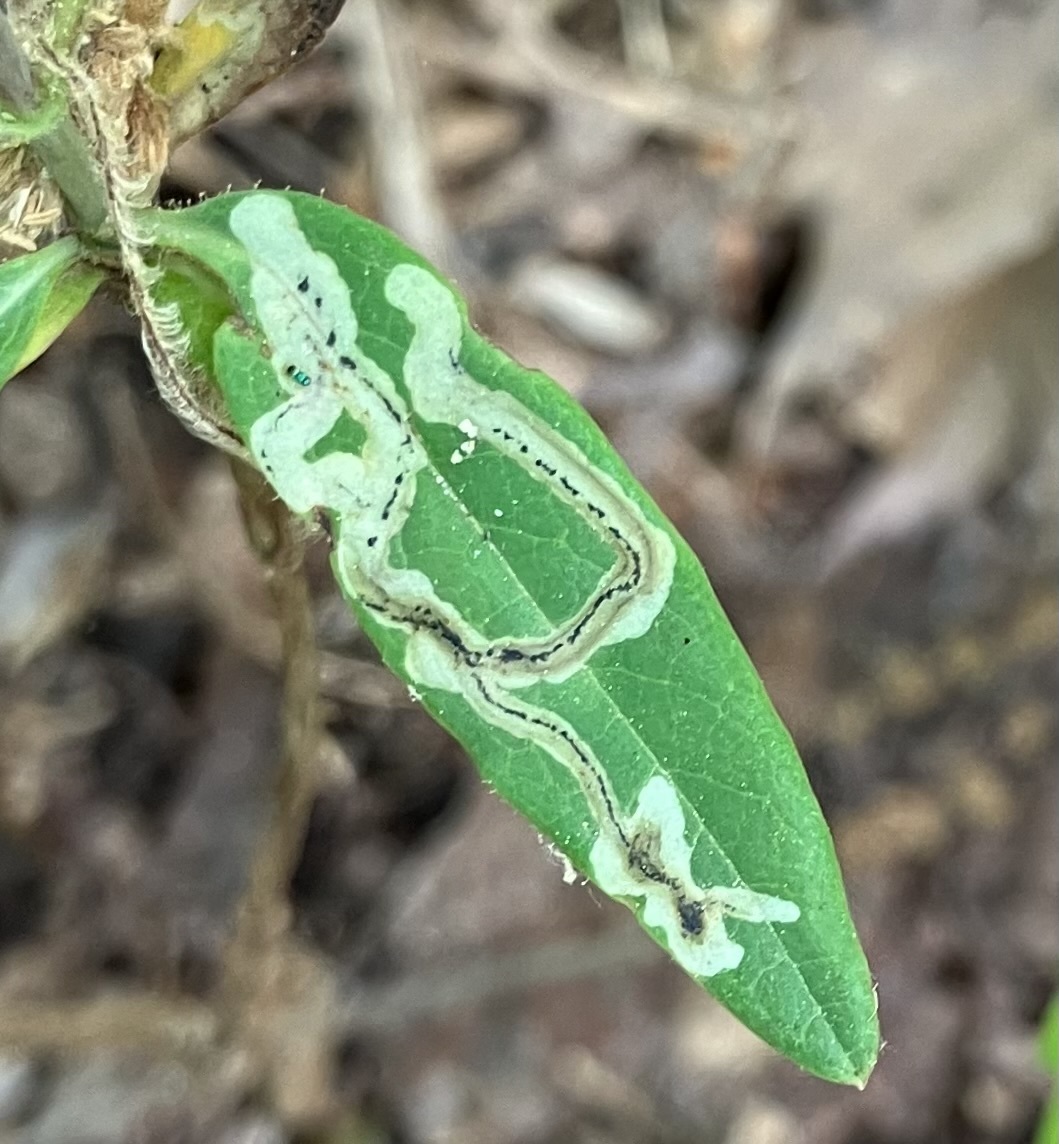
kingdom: Animalia
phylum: Arthropoda
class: Insecta
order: Diptera
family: Agromyzidae
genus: Phytomyza
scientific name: Phytomyza sempervirentis
